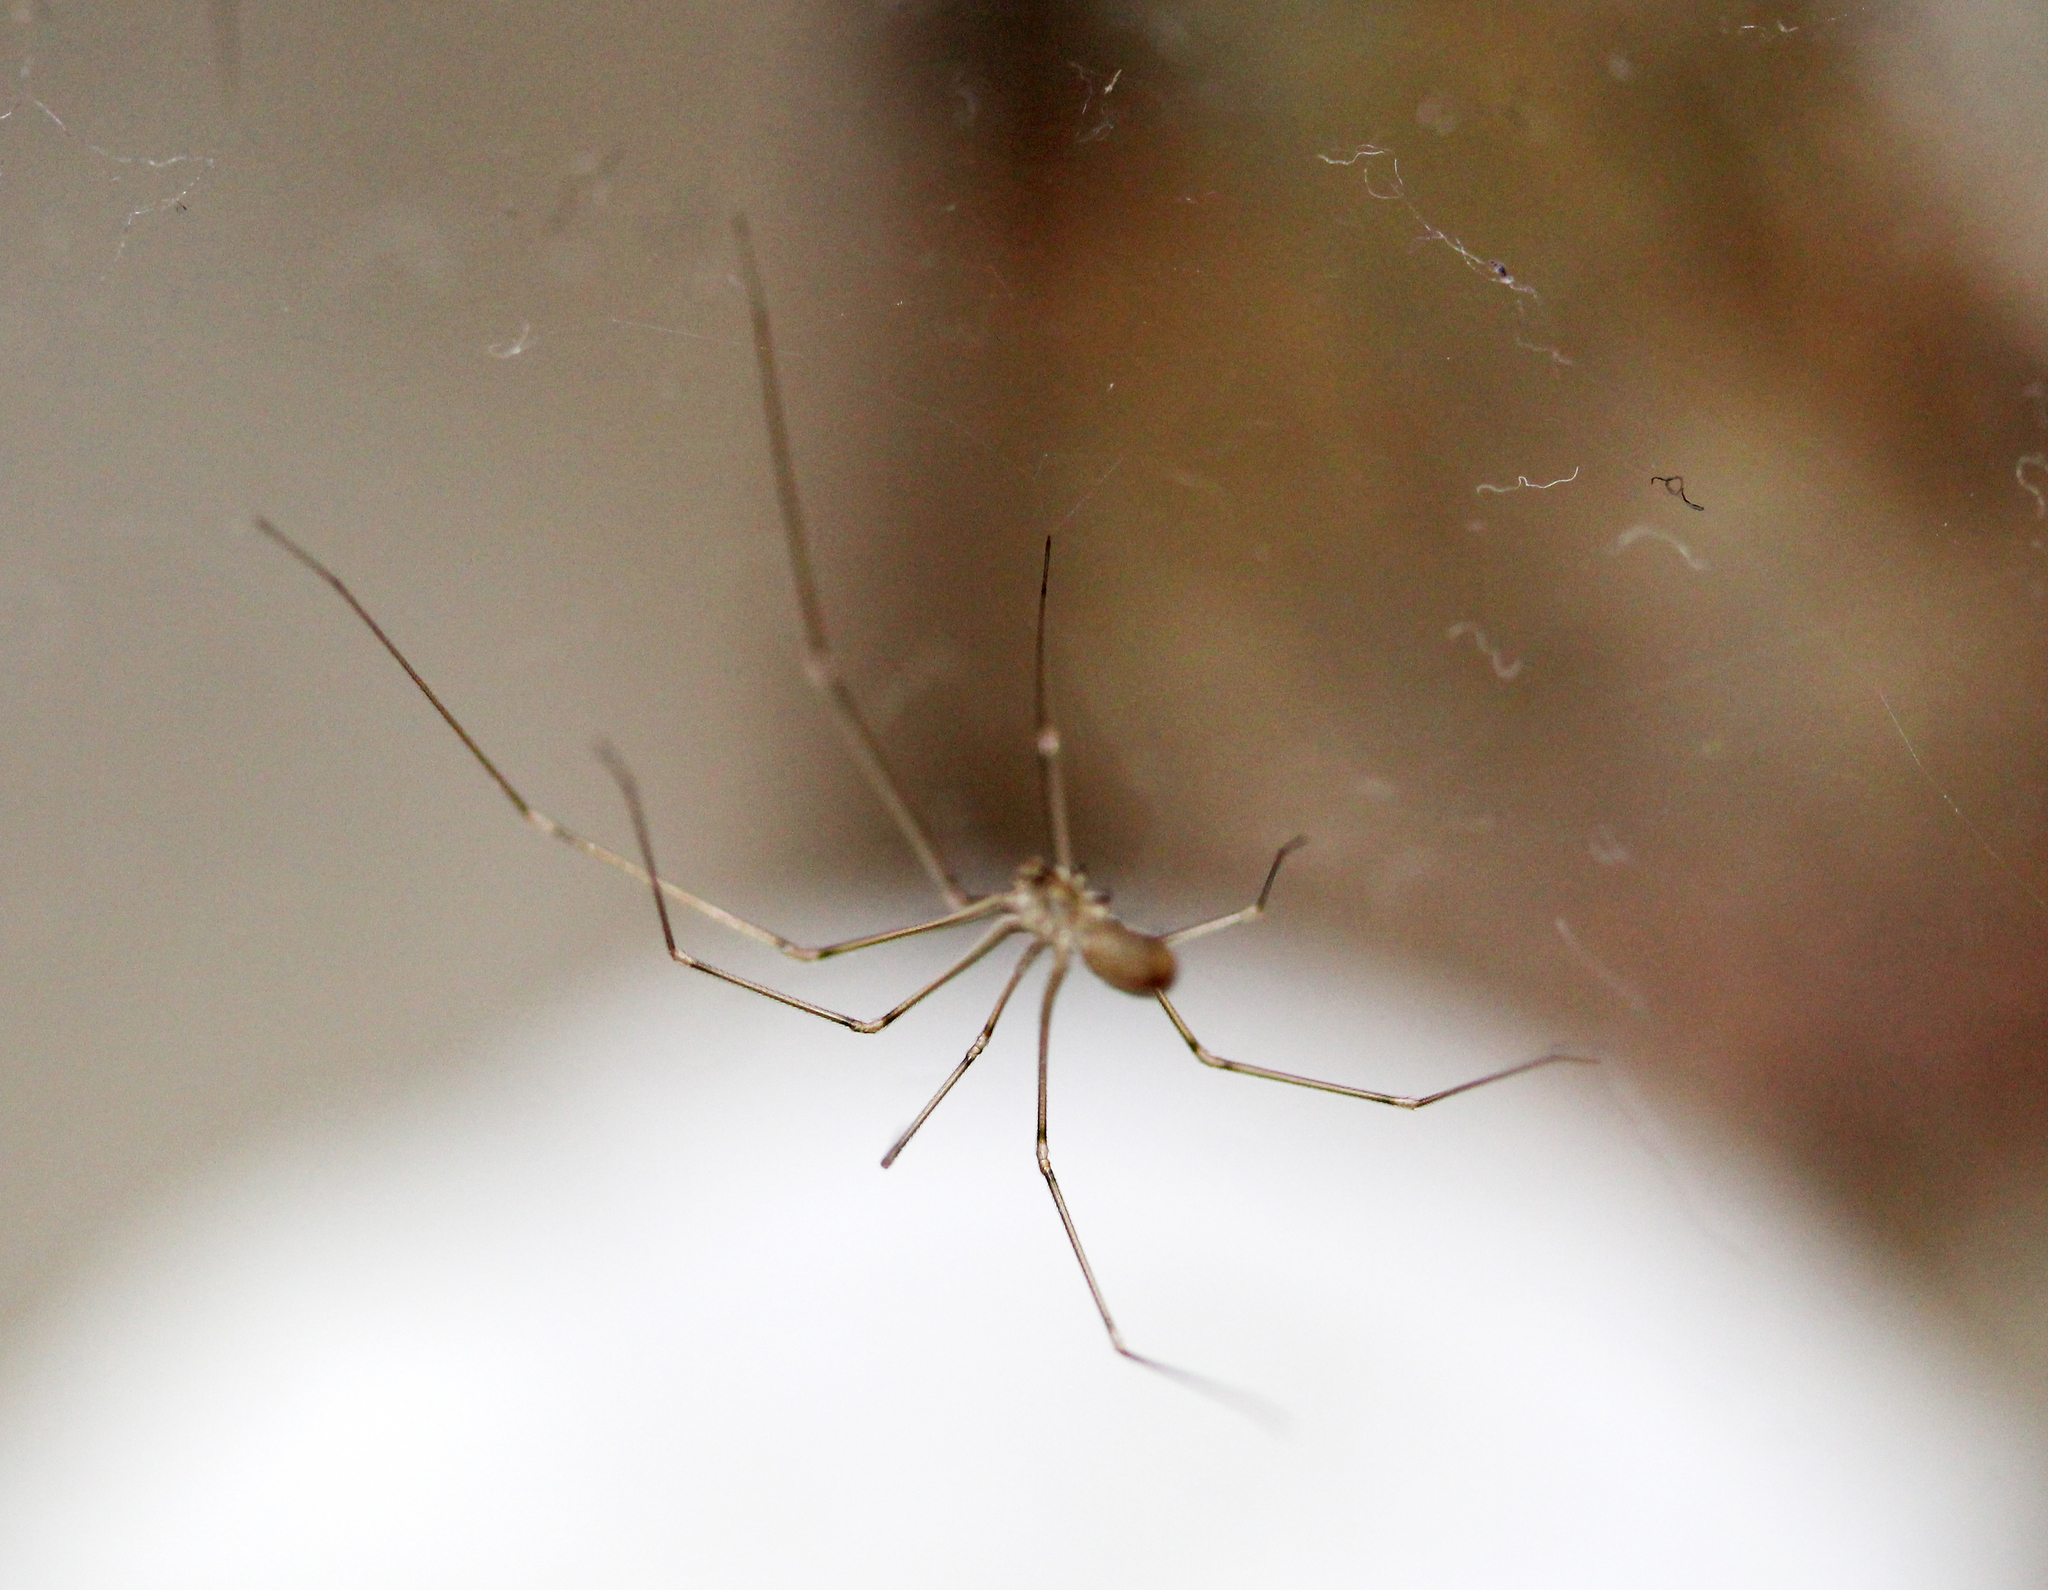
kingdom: Animalia
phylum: Arthropoda
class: Arachnida
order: Araneae
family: Pholcidae
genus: Pholcus
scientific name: Pholcus phalangioides
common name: Longbodied cellar spider
